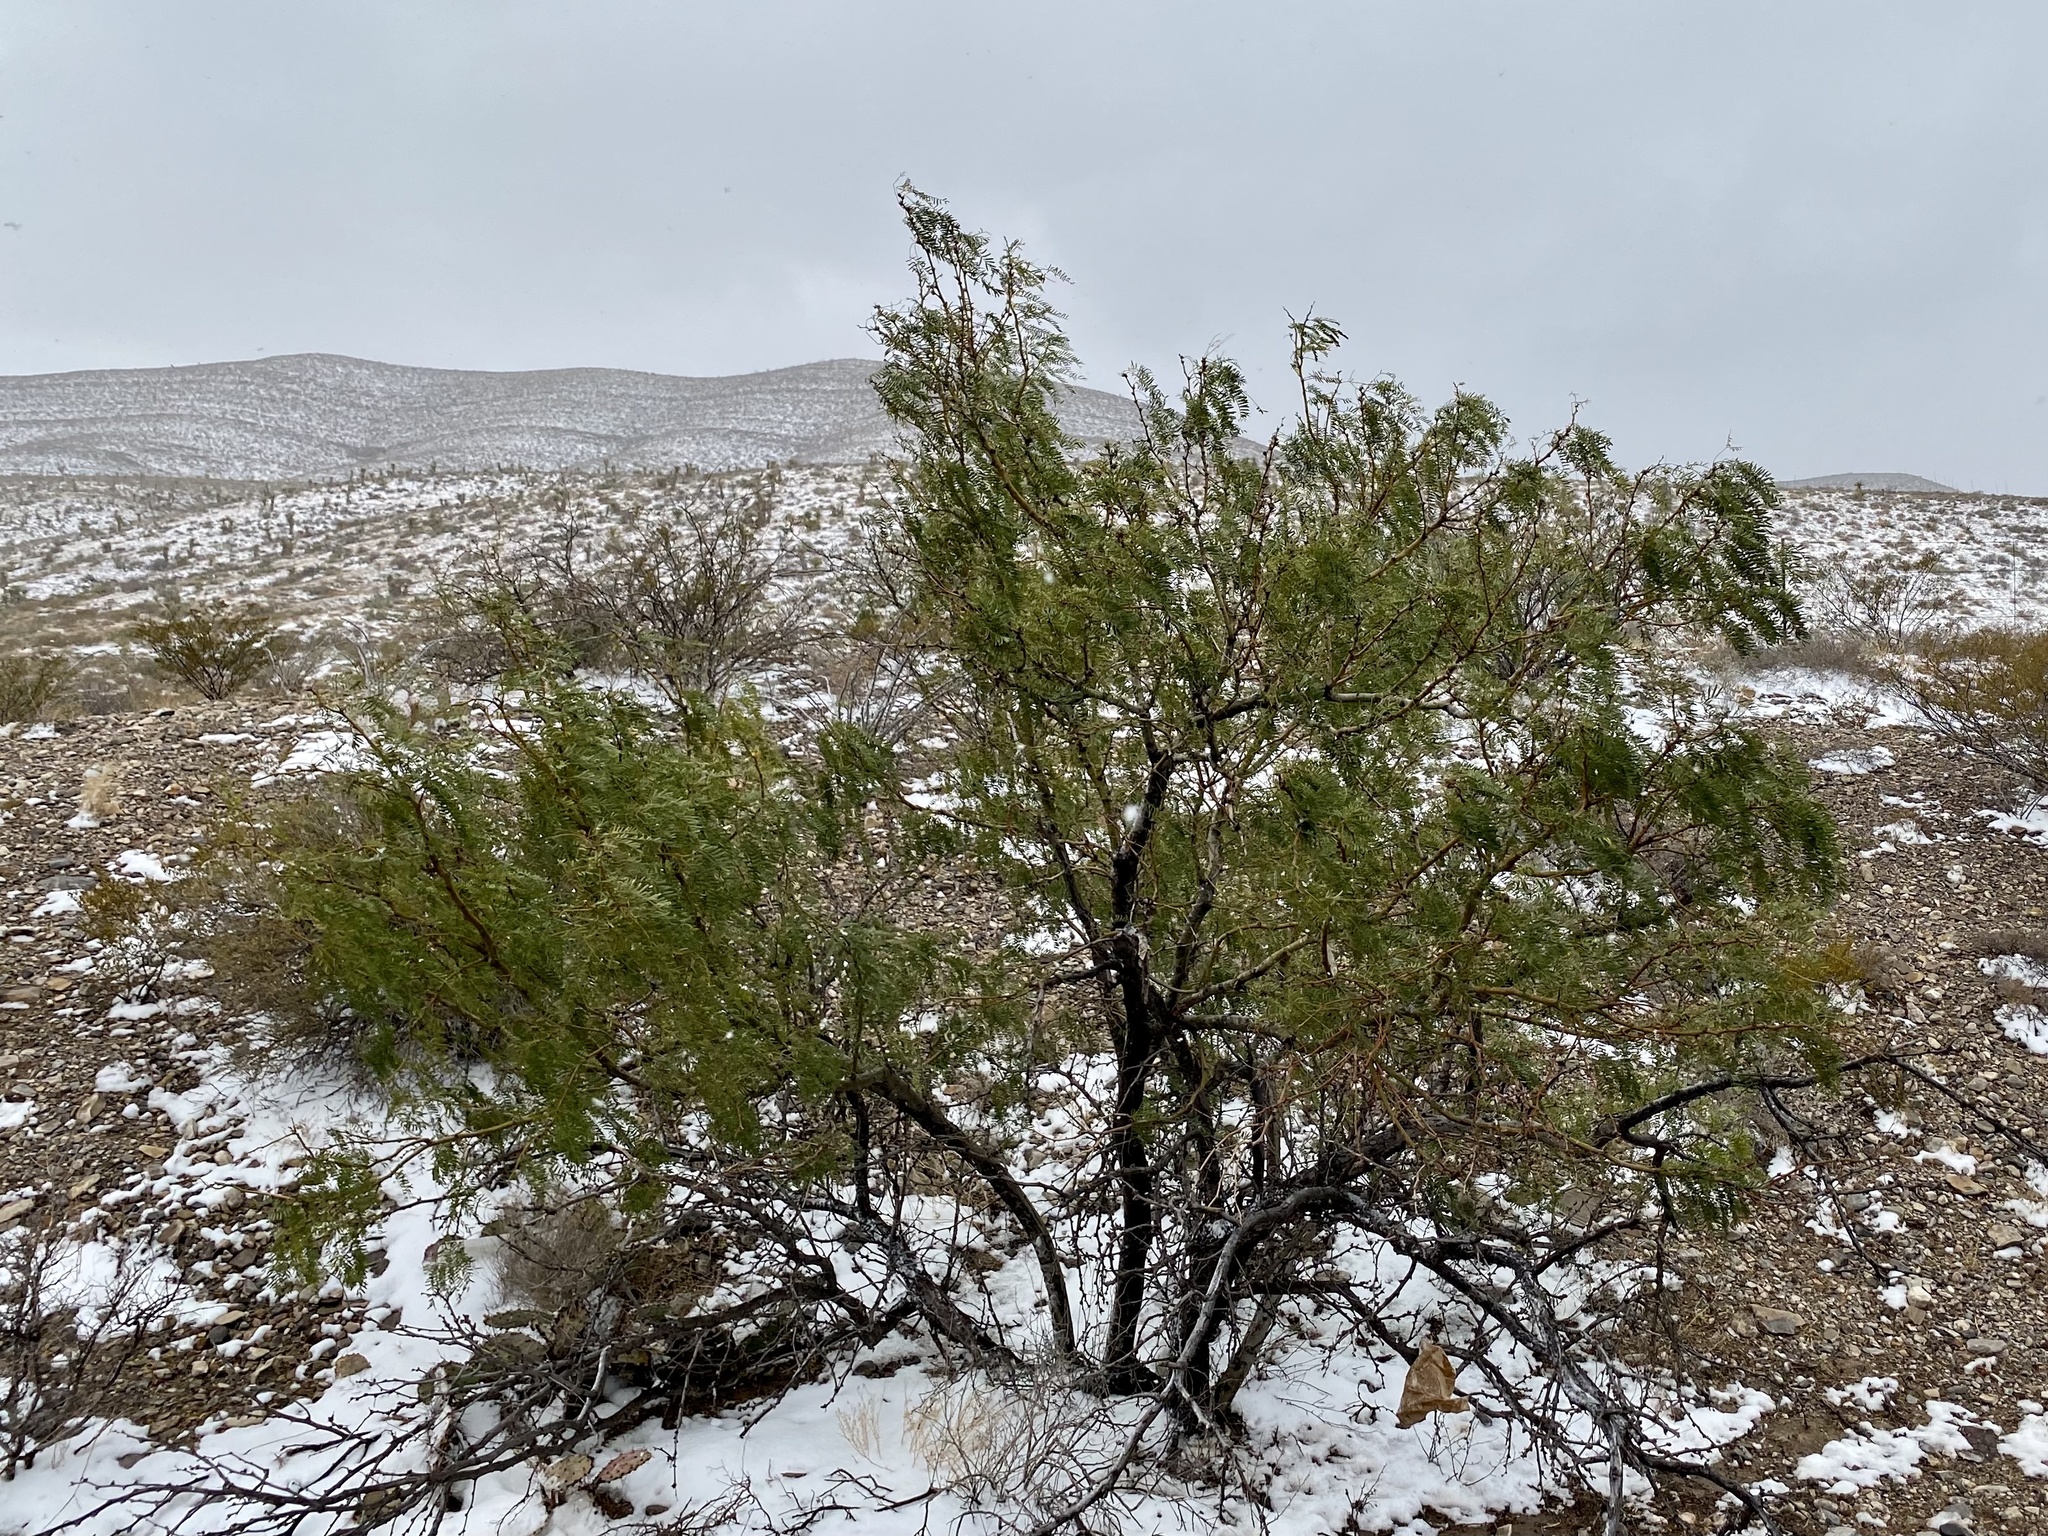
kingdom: Plantae
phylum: Tracheophyta
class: Magnoliopsida
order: Fabales
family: Fabaceae
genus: Prosopis
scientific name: Prosopis glandulosa
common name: Honey mesquite
